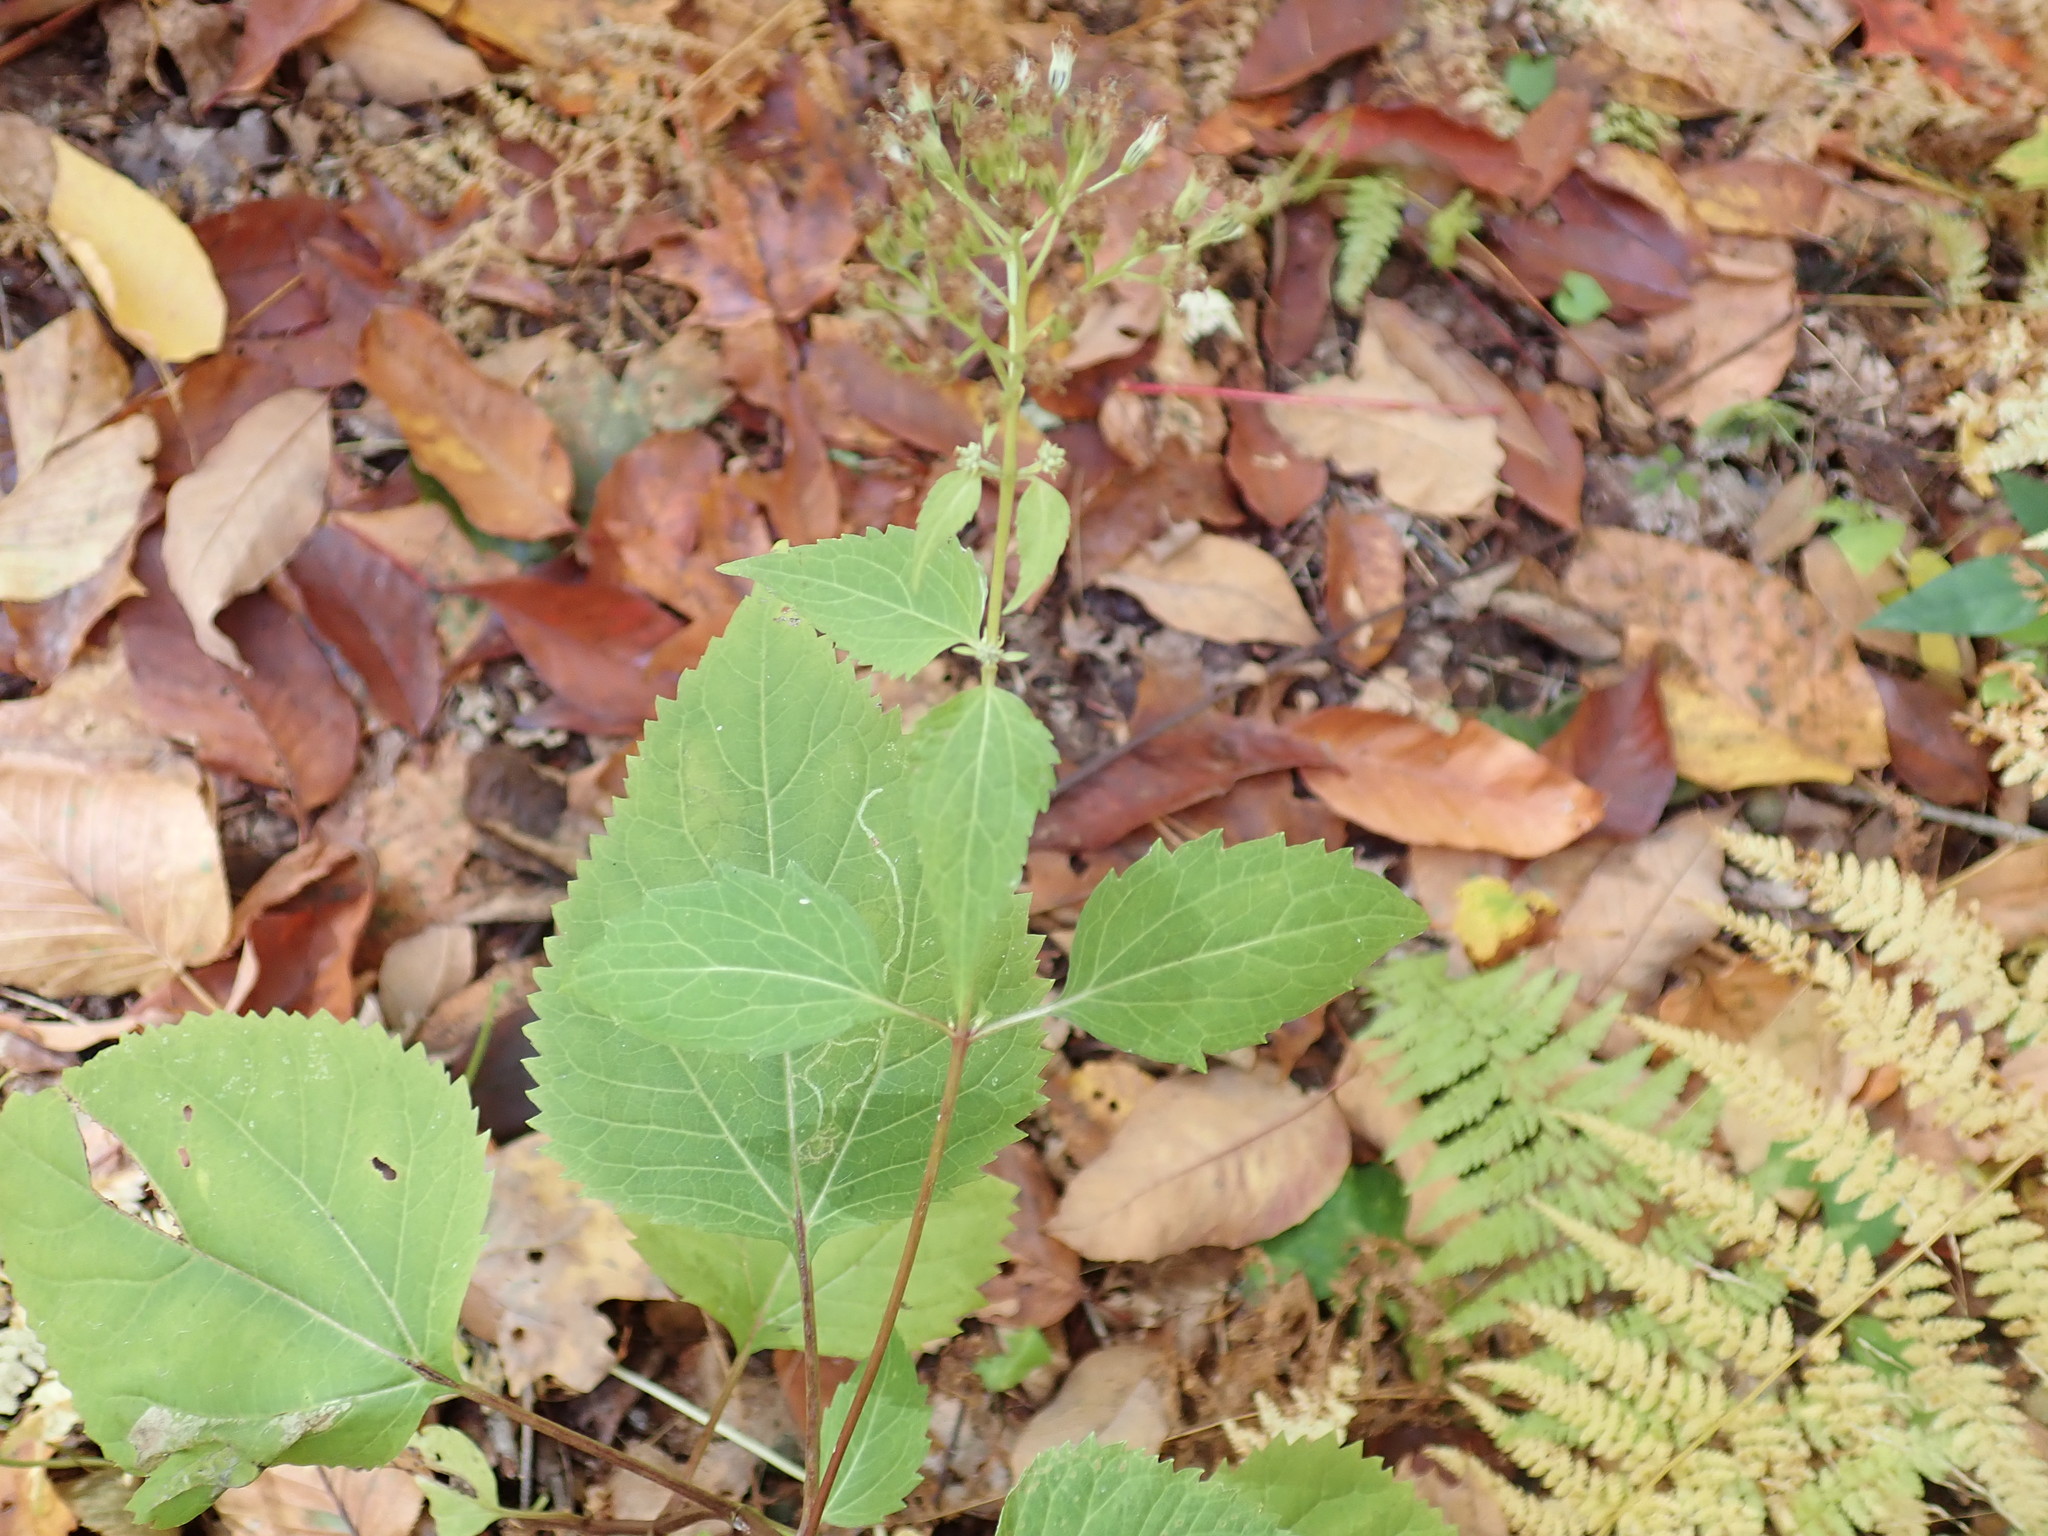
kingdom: Plantae
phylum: Tracheophyta
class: Magnoliopsida
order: Asterales
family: Asteraceae
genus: Ageratina
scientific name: Ageratina altissima
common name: White snakeroot
